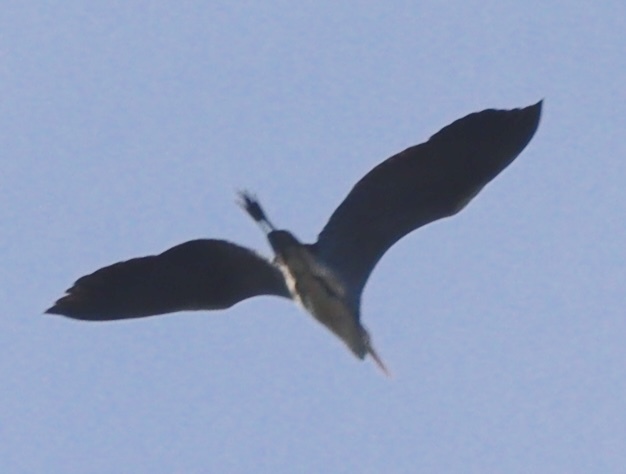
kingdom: Animalia
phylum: Chordata
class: Aves
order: Pelecaniformes
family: Ardeidae
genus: Ardea
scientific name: Ardea cinerea
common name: Grey heron
